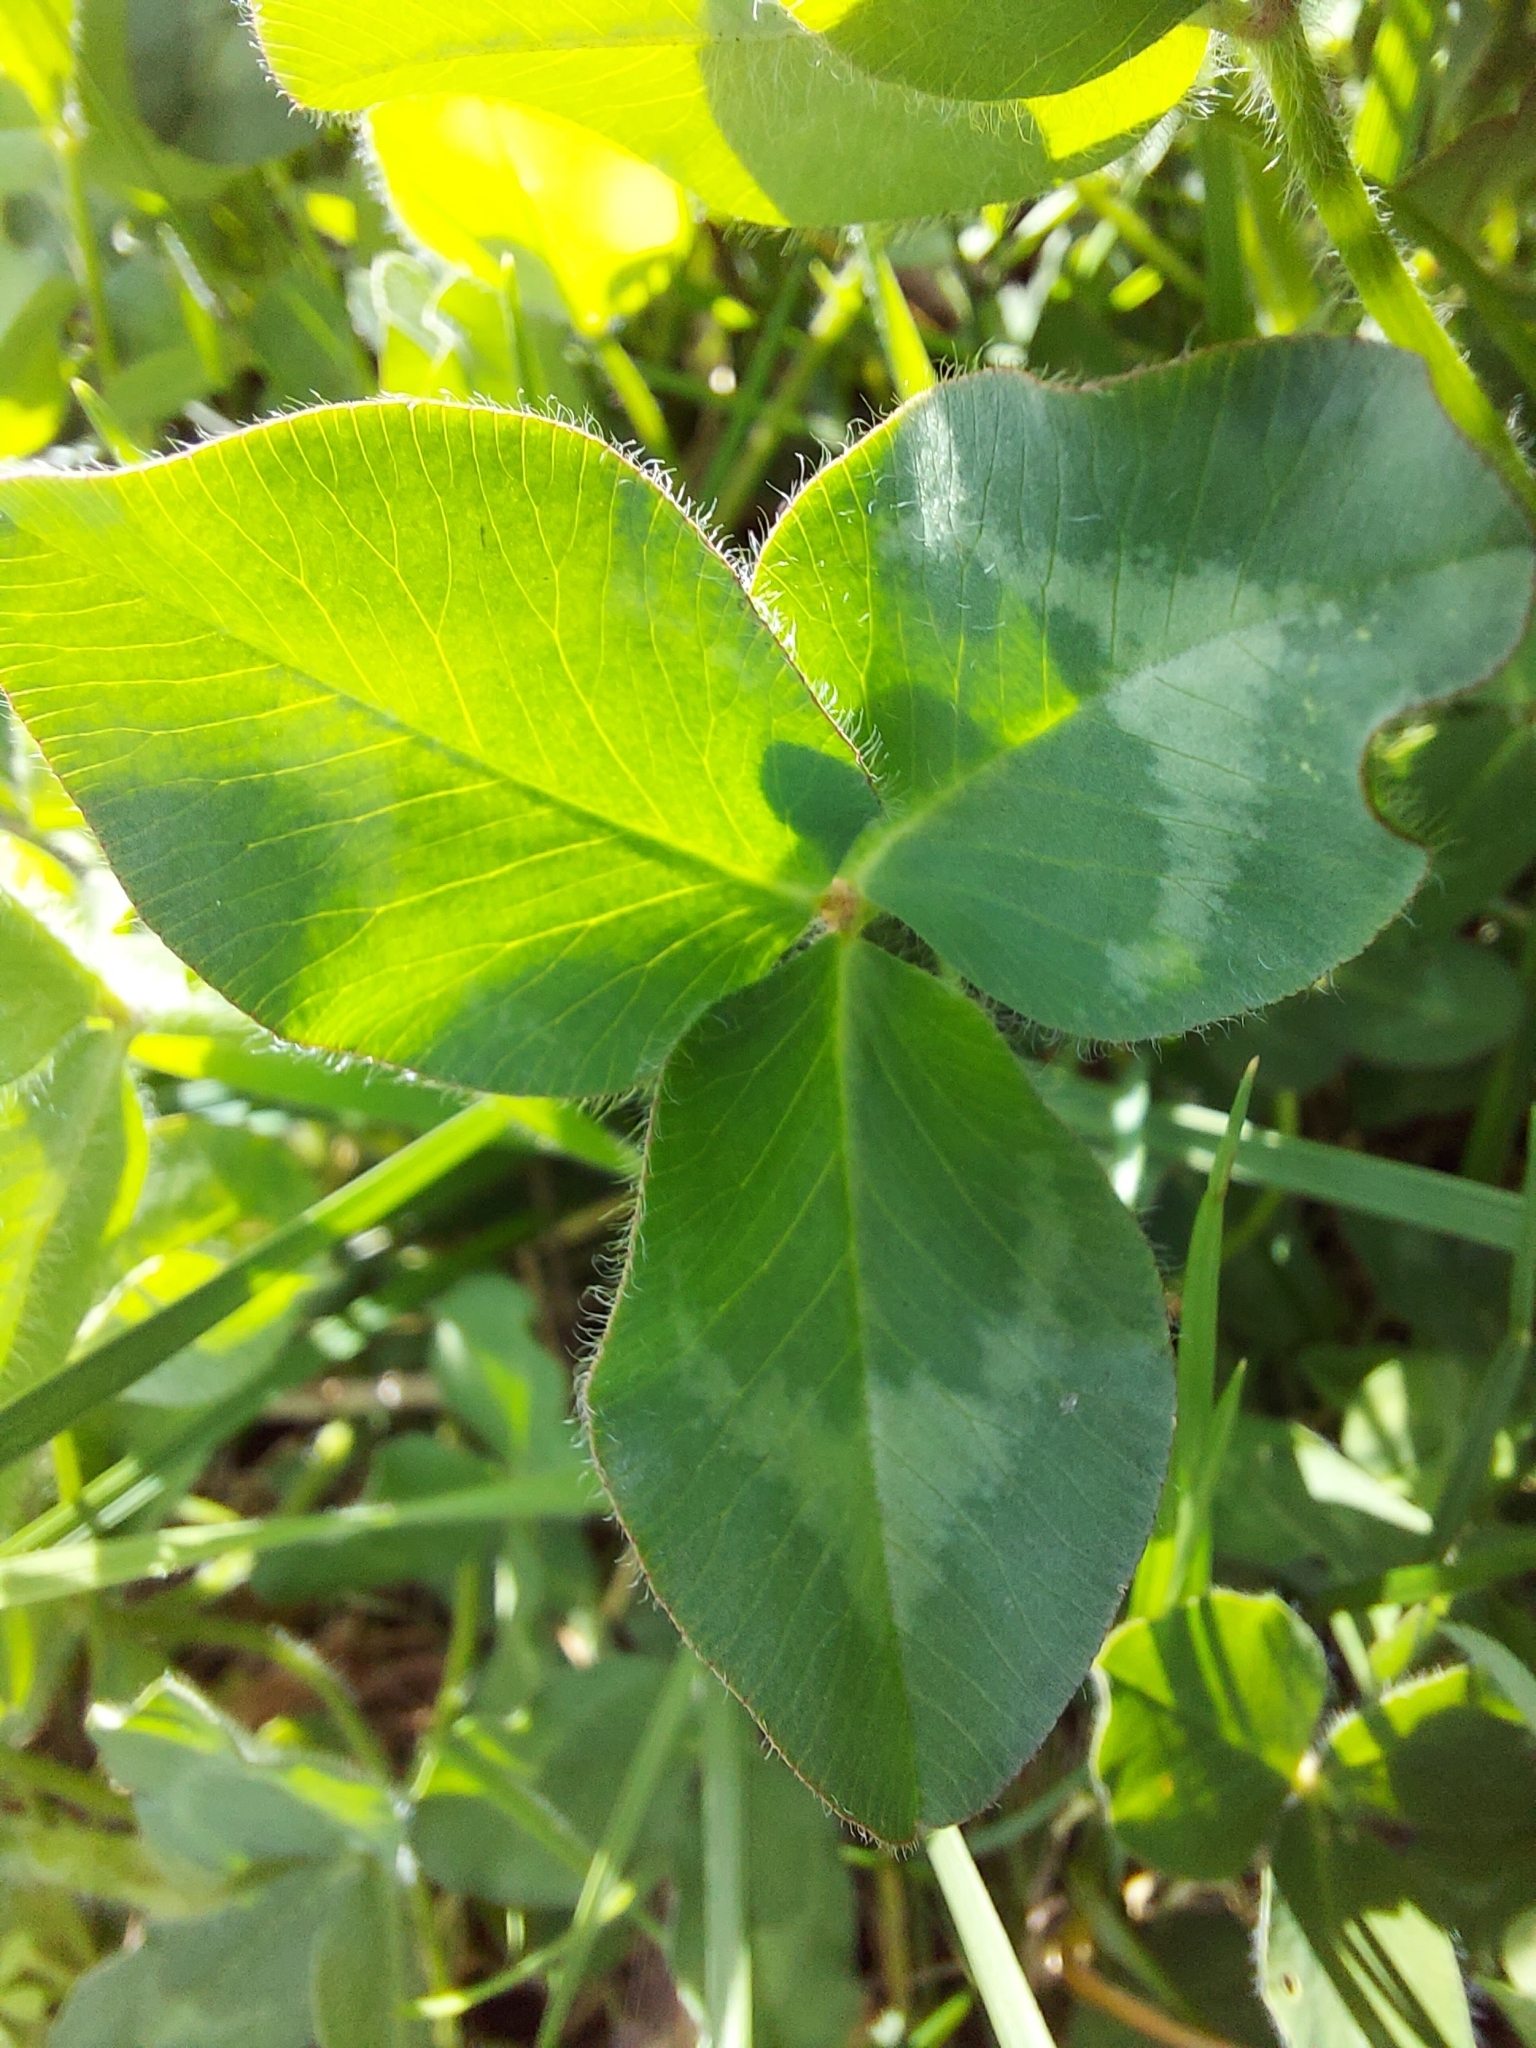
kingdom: Plantae
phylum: Tracheophyta
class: Magnoliopsida
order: Fabales
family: Fabaceae
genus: Trifolium
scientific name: Trifolium pratense
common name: Red clover
